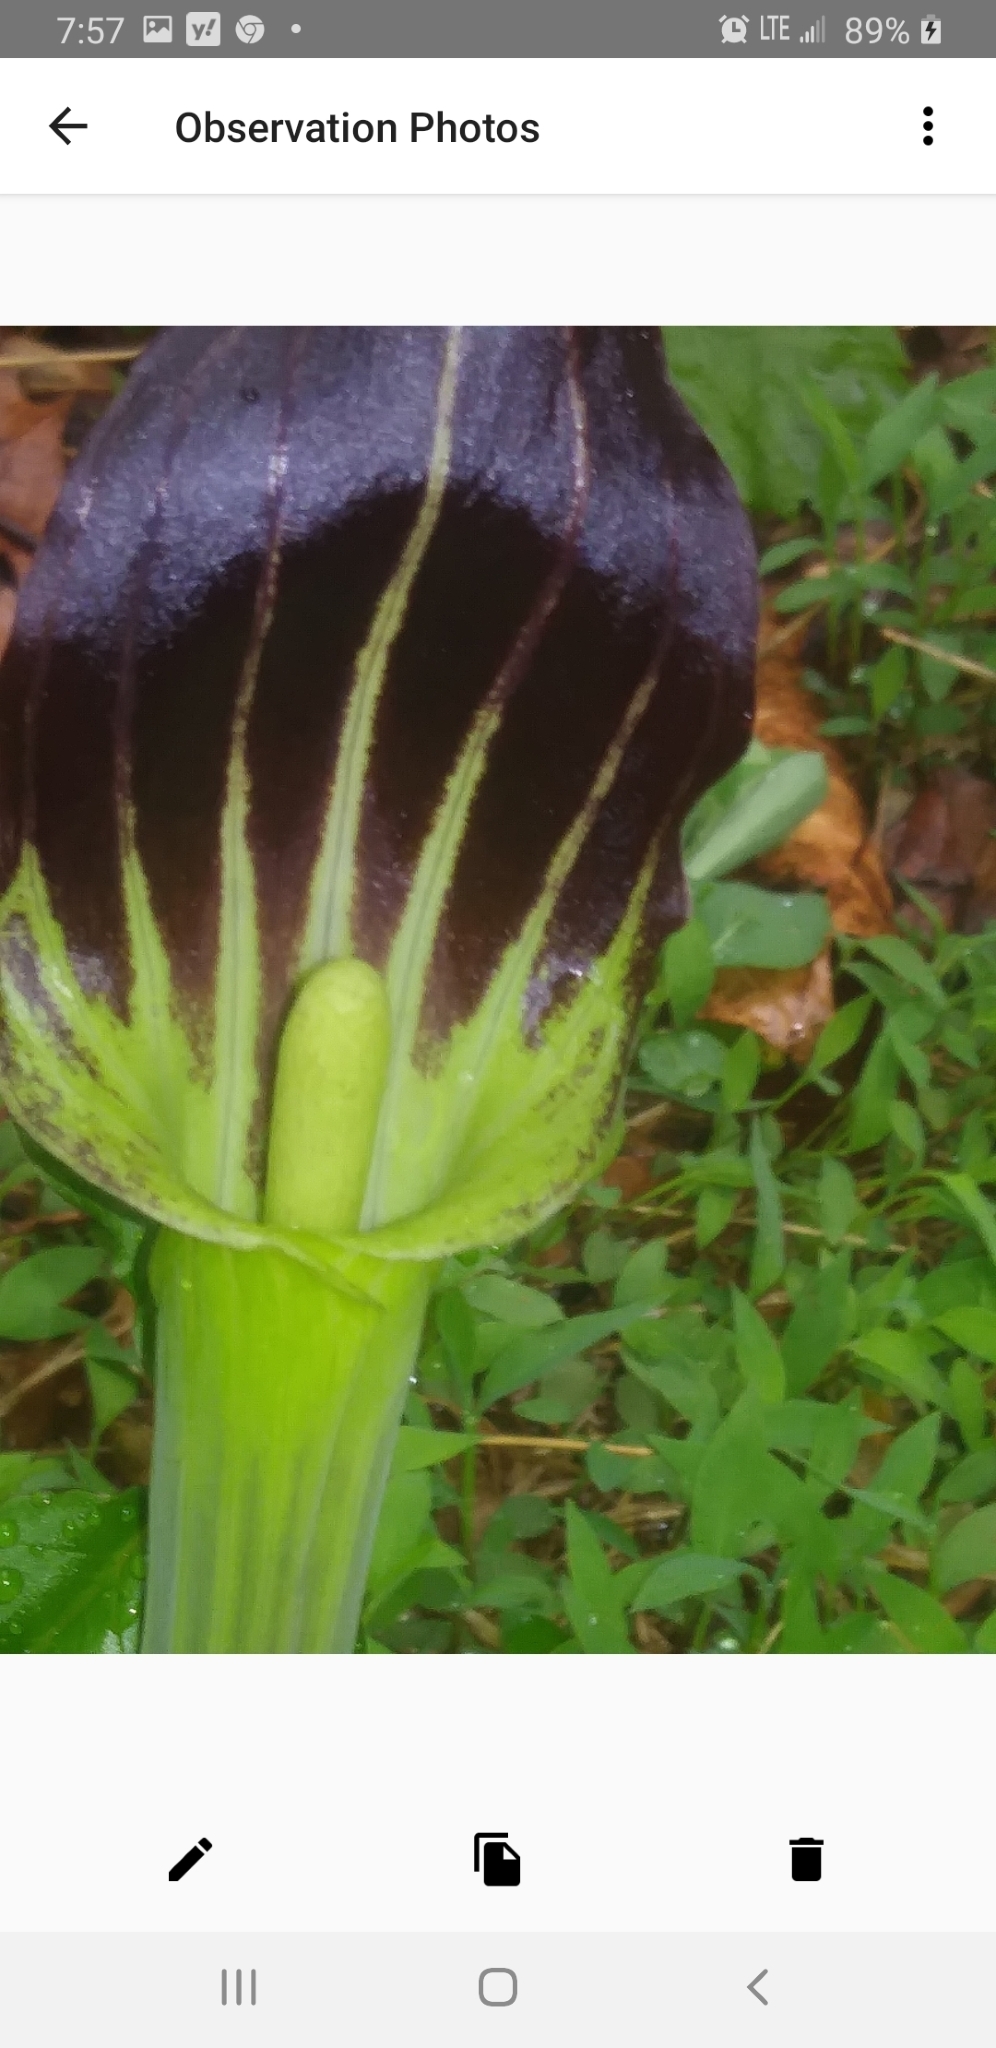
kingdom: Plantae
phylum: Tracheophyta
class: Liliopsida
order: Alismatales
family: Araceae
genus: Arisaema
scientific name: Arisaema ringens
